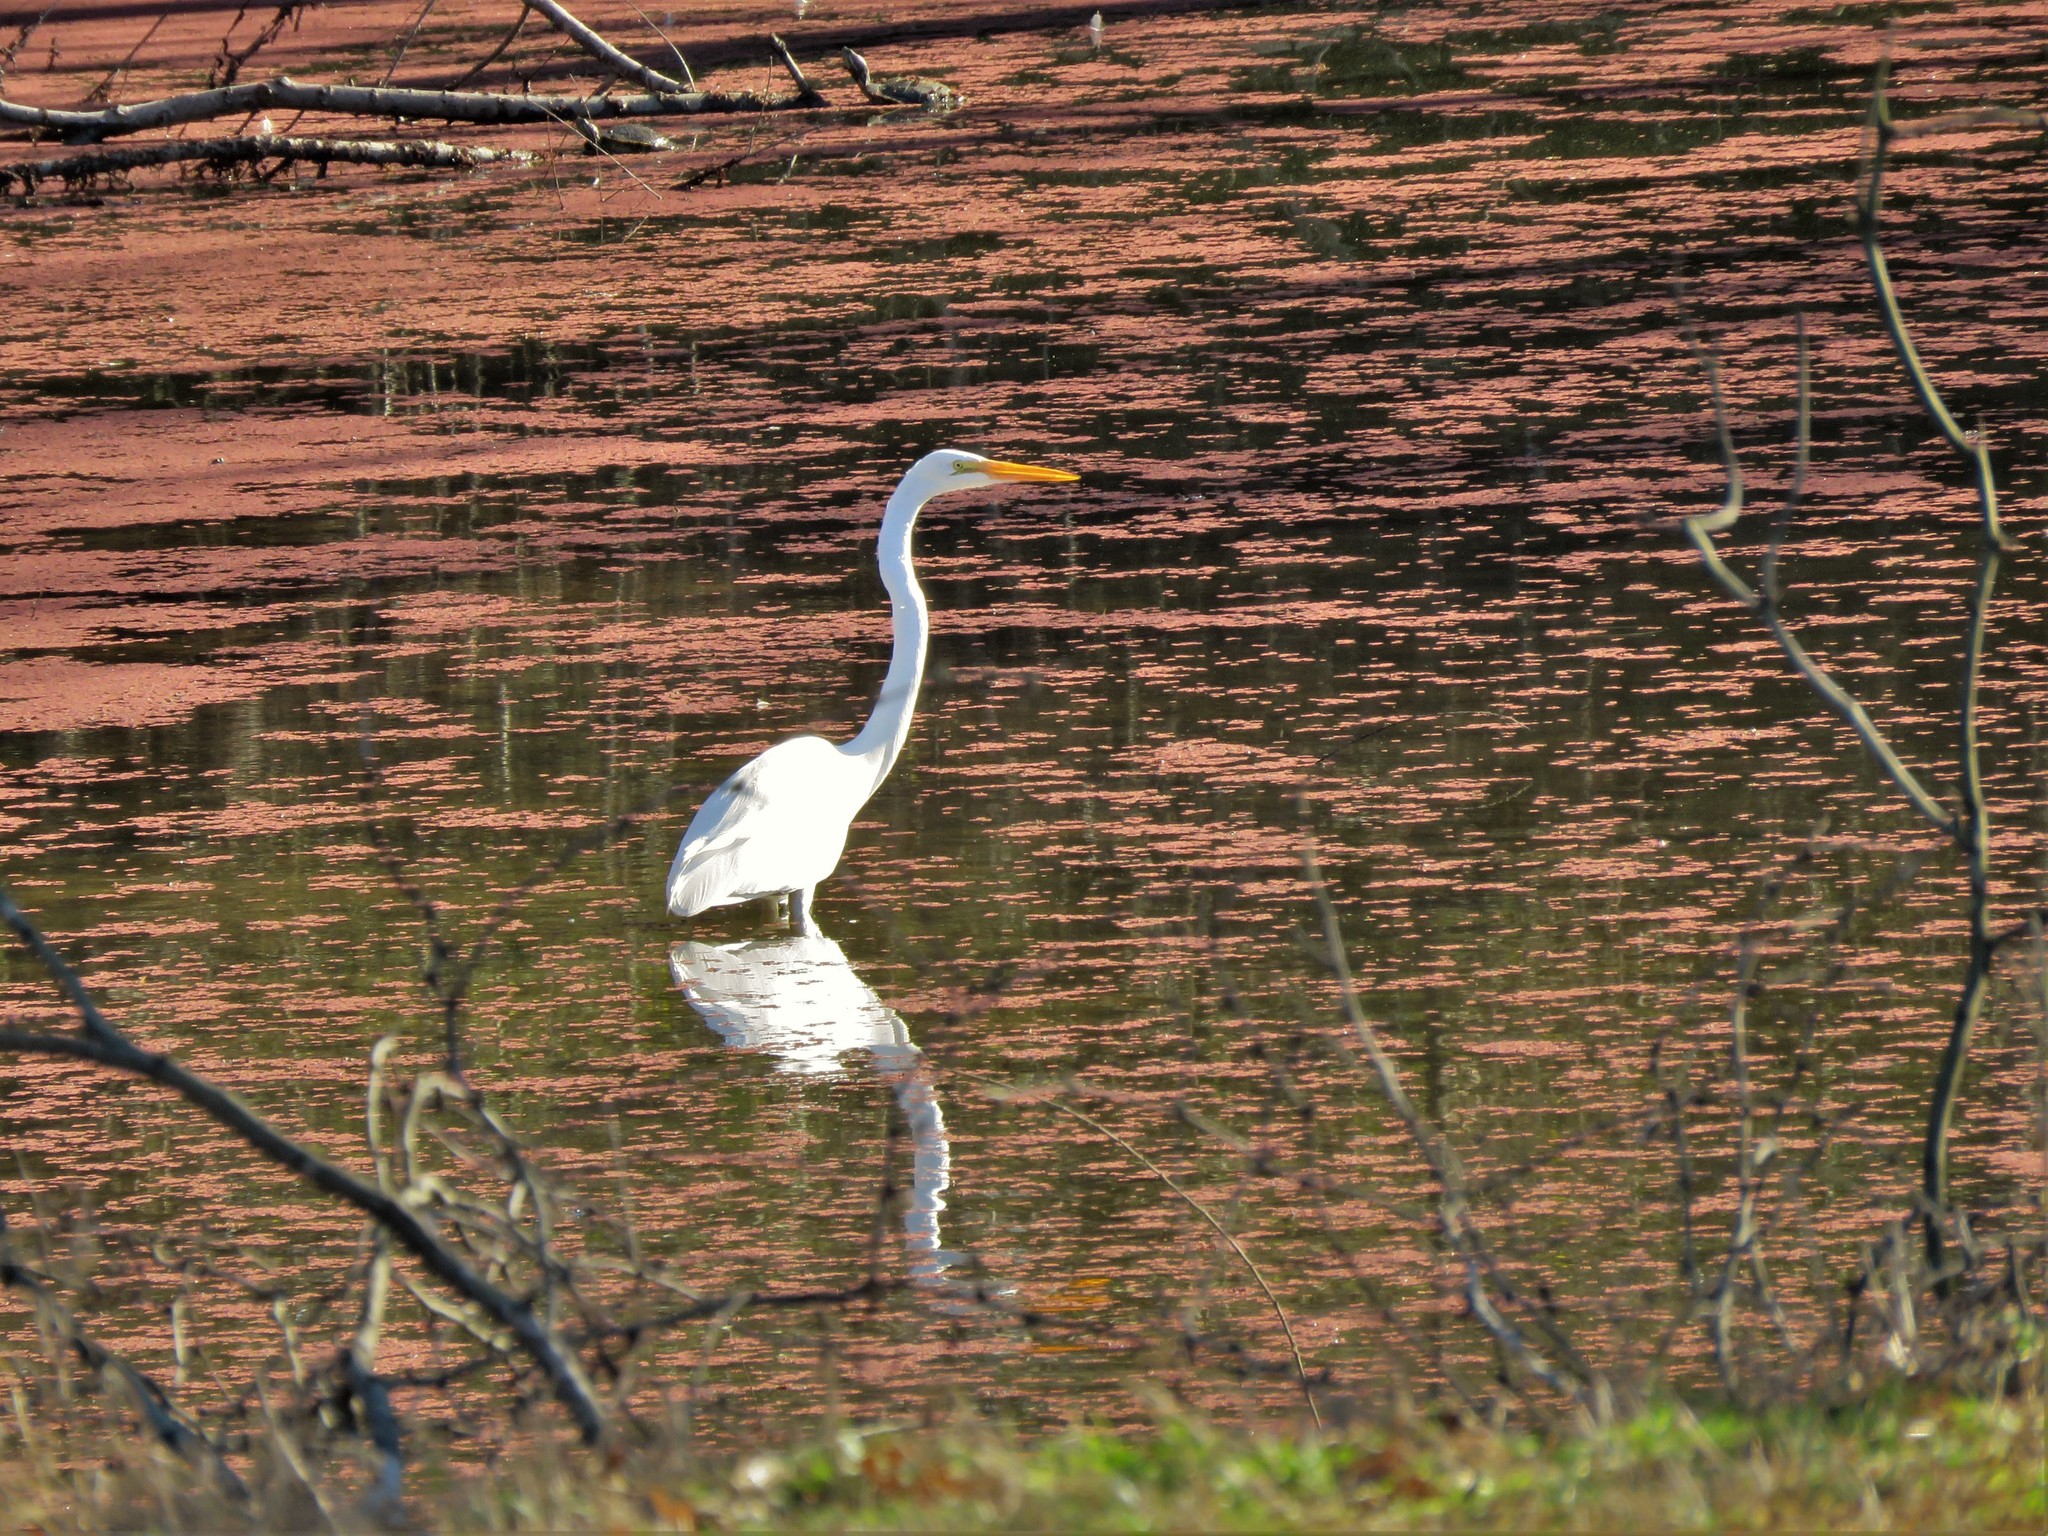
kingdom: Animalia
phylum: Chordata
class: Aves
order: Pelecaniformes
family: Ardeidae
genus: Ardea
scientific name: Ardea alba
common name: Great egret
